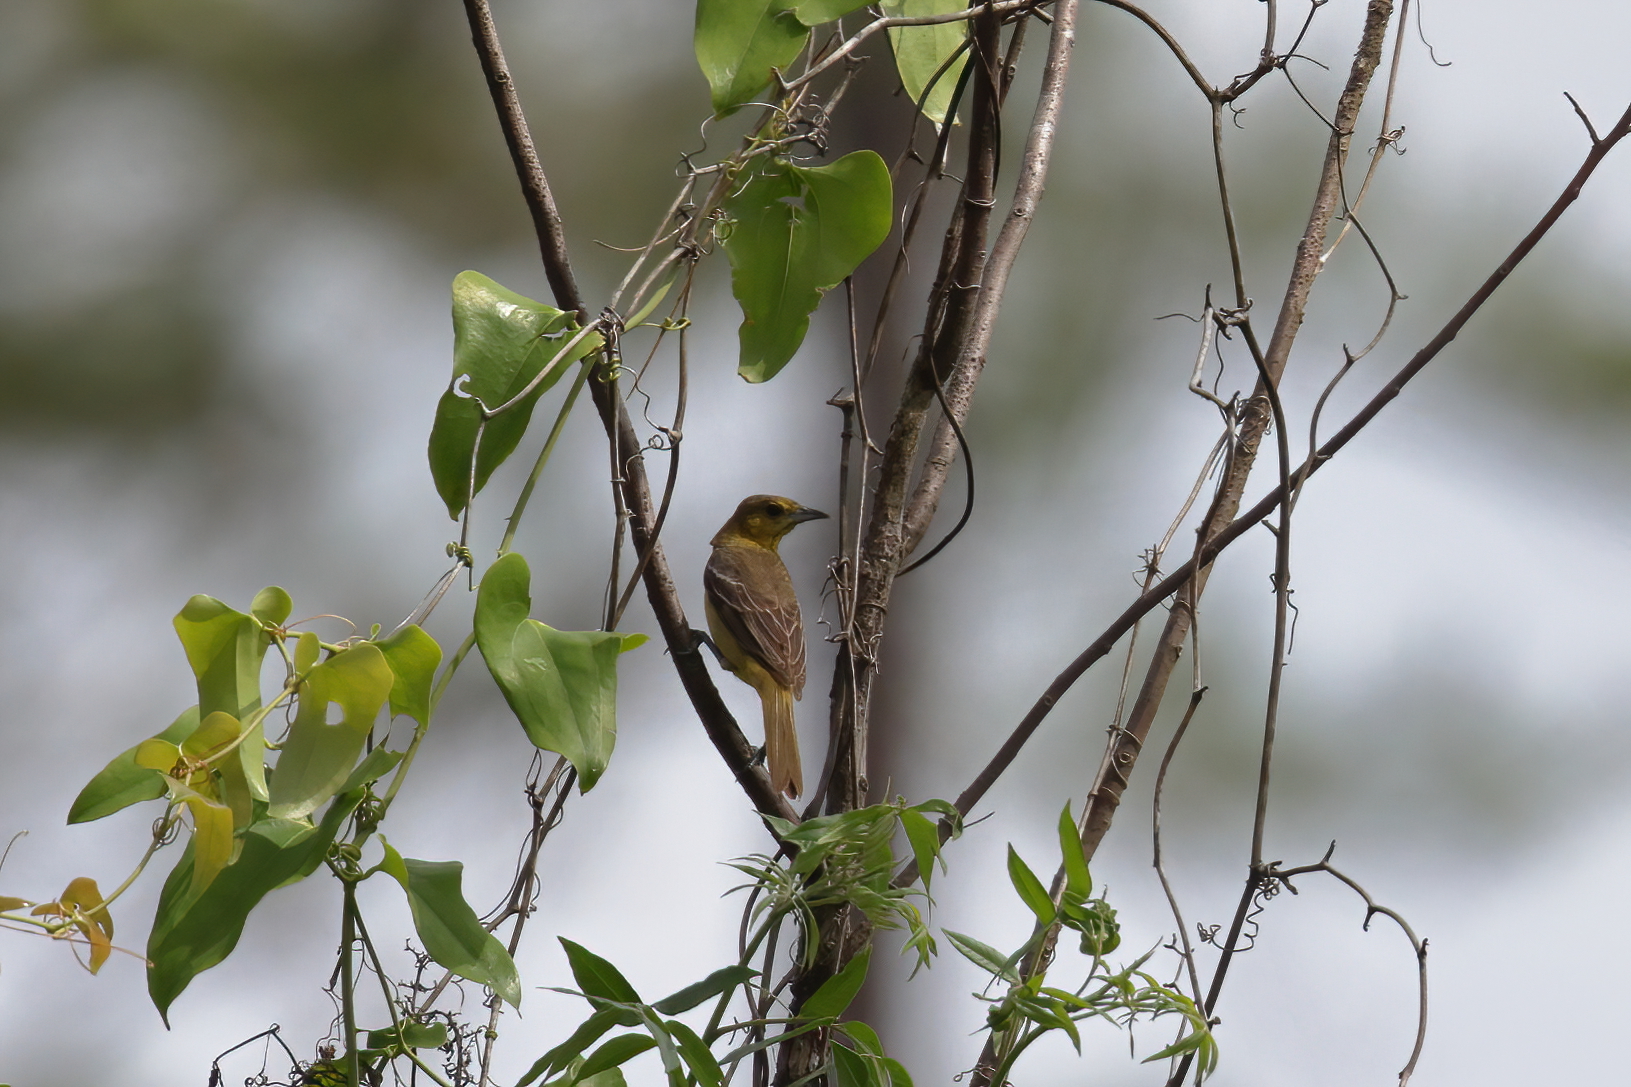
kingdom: Animalia
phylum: Chordata
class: Aves
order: Passeriformes
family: Icteridae
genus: Icterus
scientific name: Icterus spurius
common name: Orchard oriole
